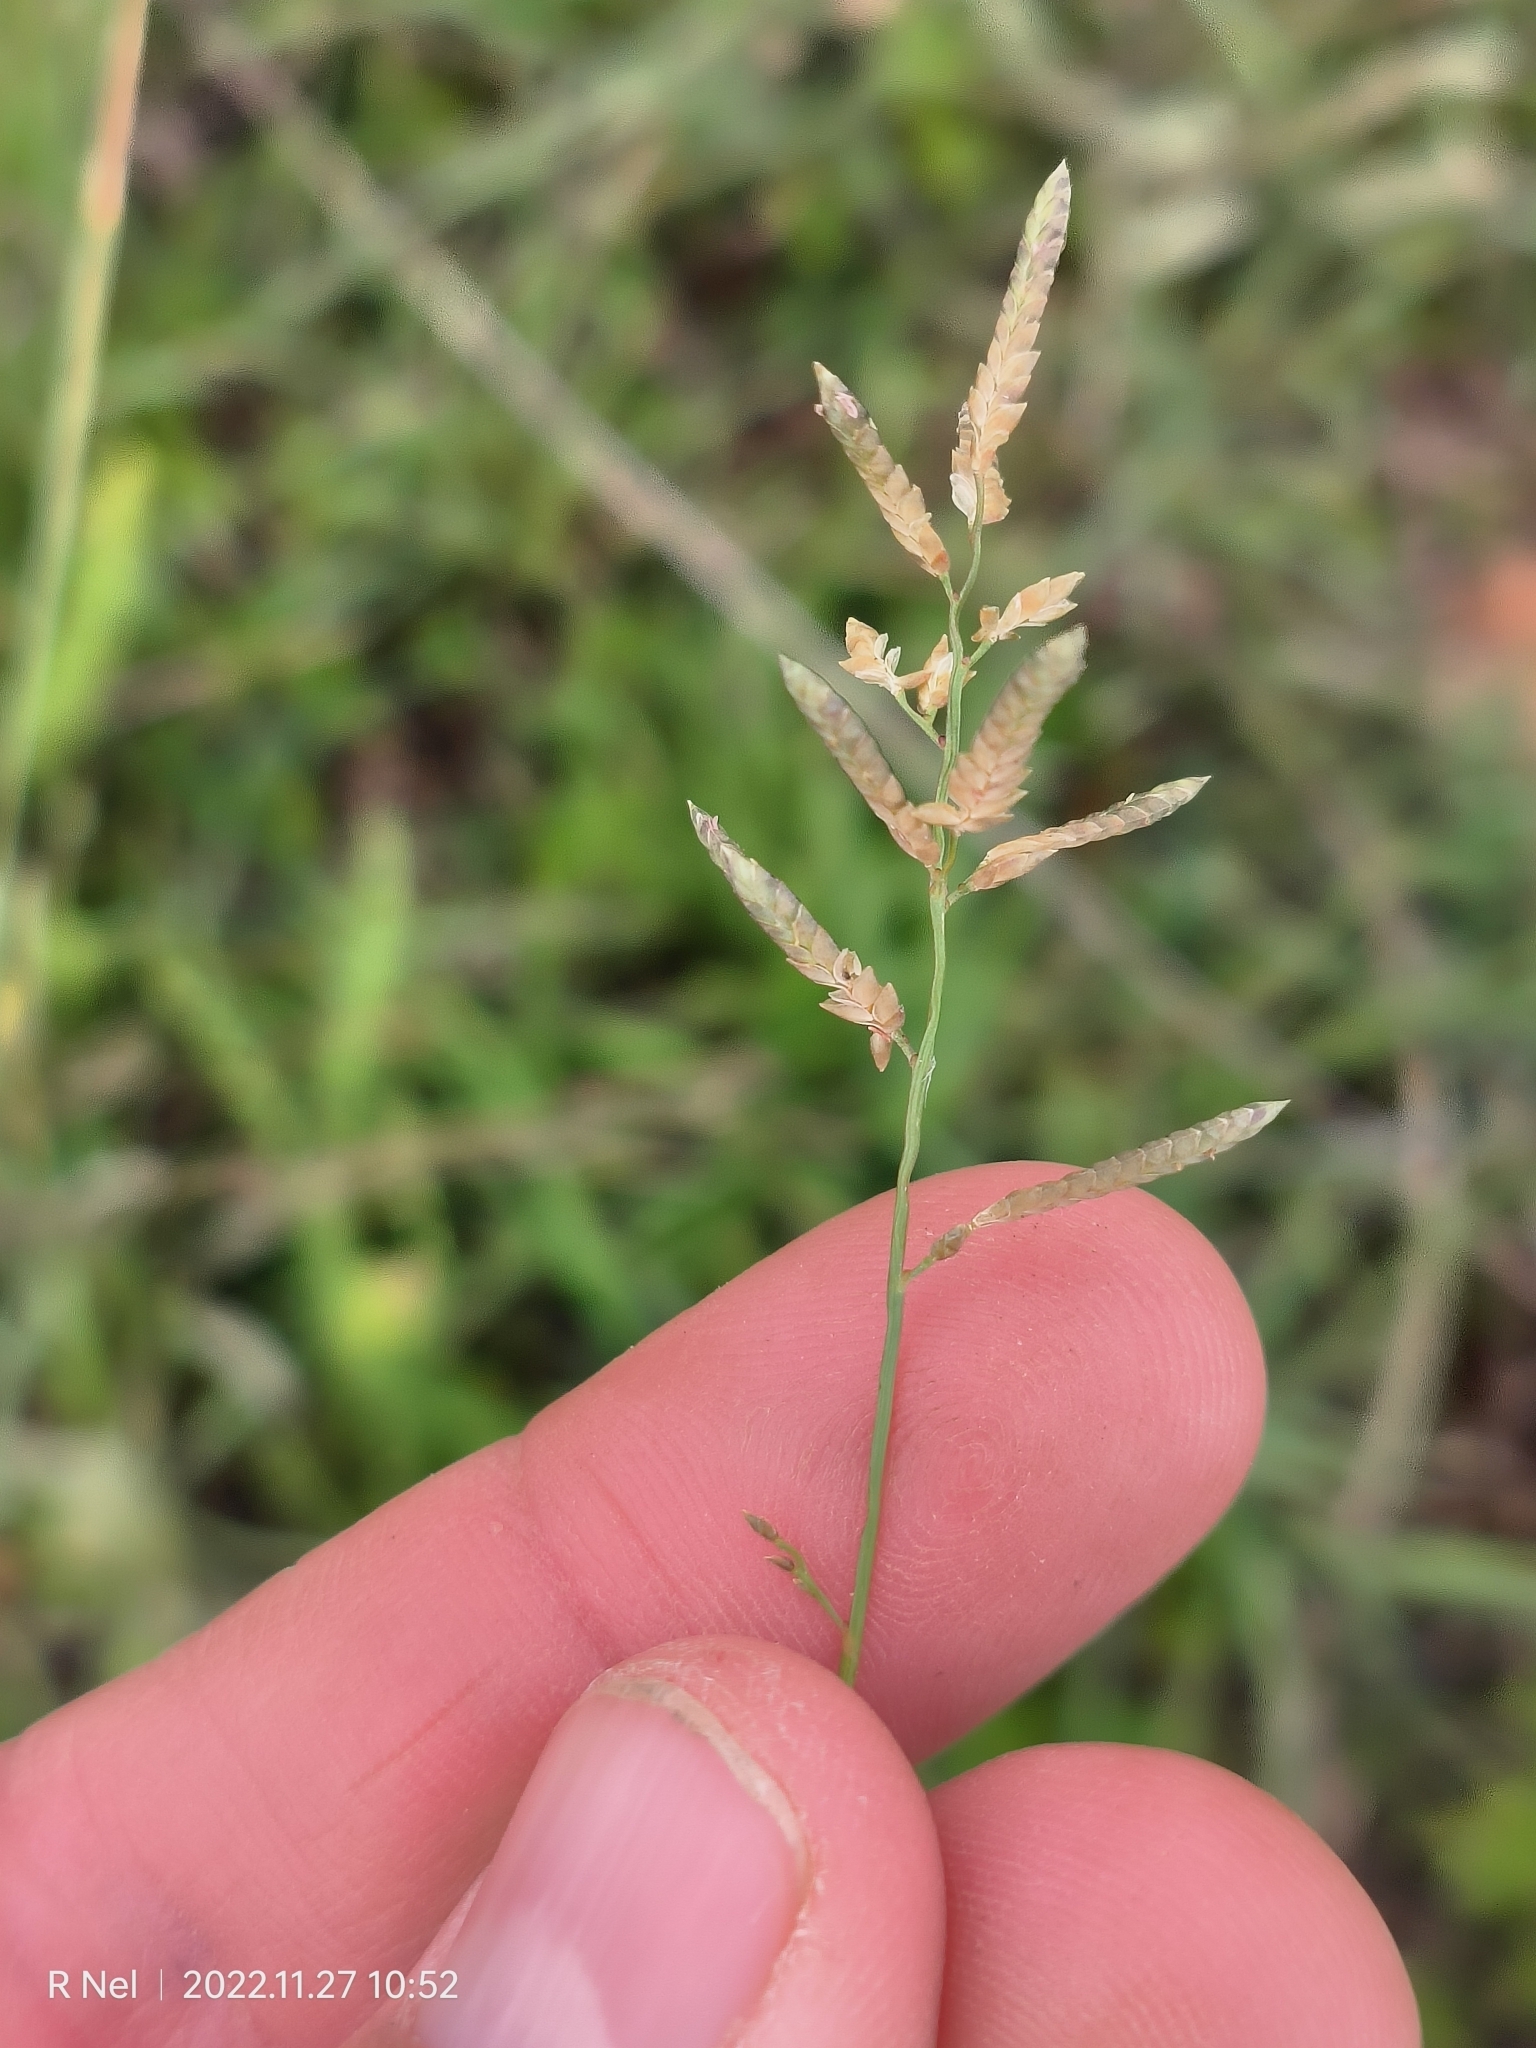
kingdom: Plantae
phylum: Tracheophyta
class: Liliopsida
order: Poales
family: Poaceae
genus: Eragrostis
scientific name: Eragrostis racemosa
